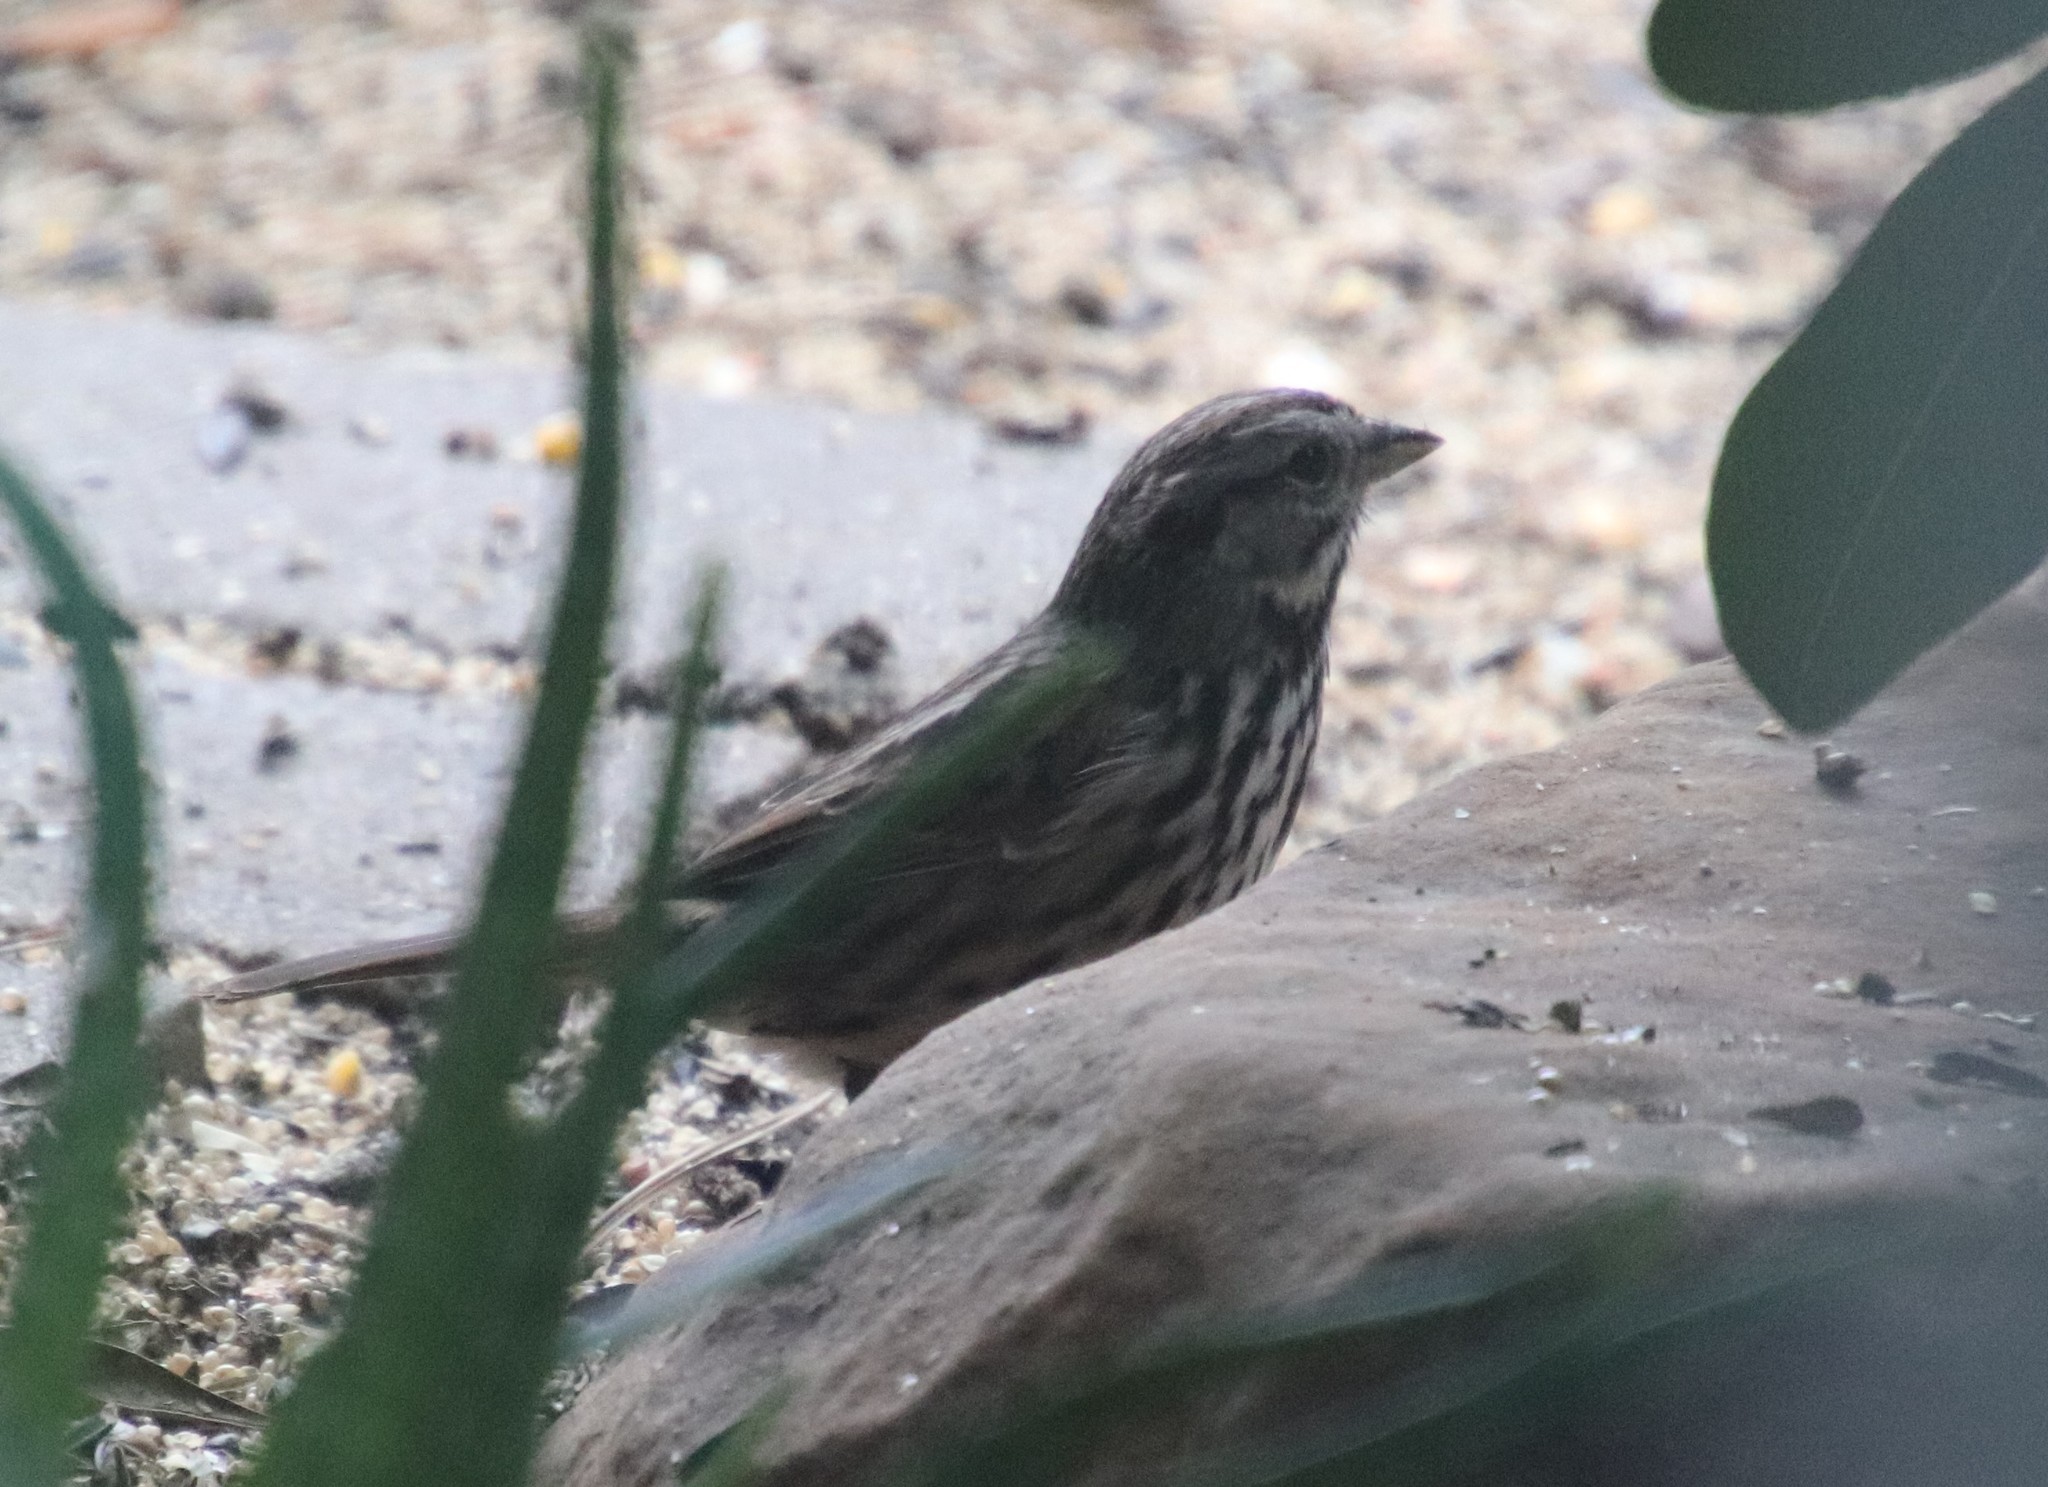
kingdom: Animalia
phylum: Chordata
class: Aves
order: Passeriformes
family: Passerellidae
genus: Melospiza
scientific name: Melospiza melodia
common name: Song sparrow
